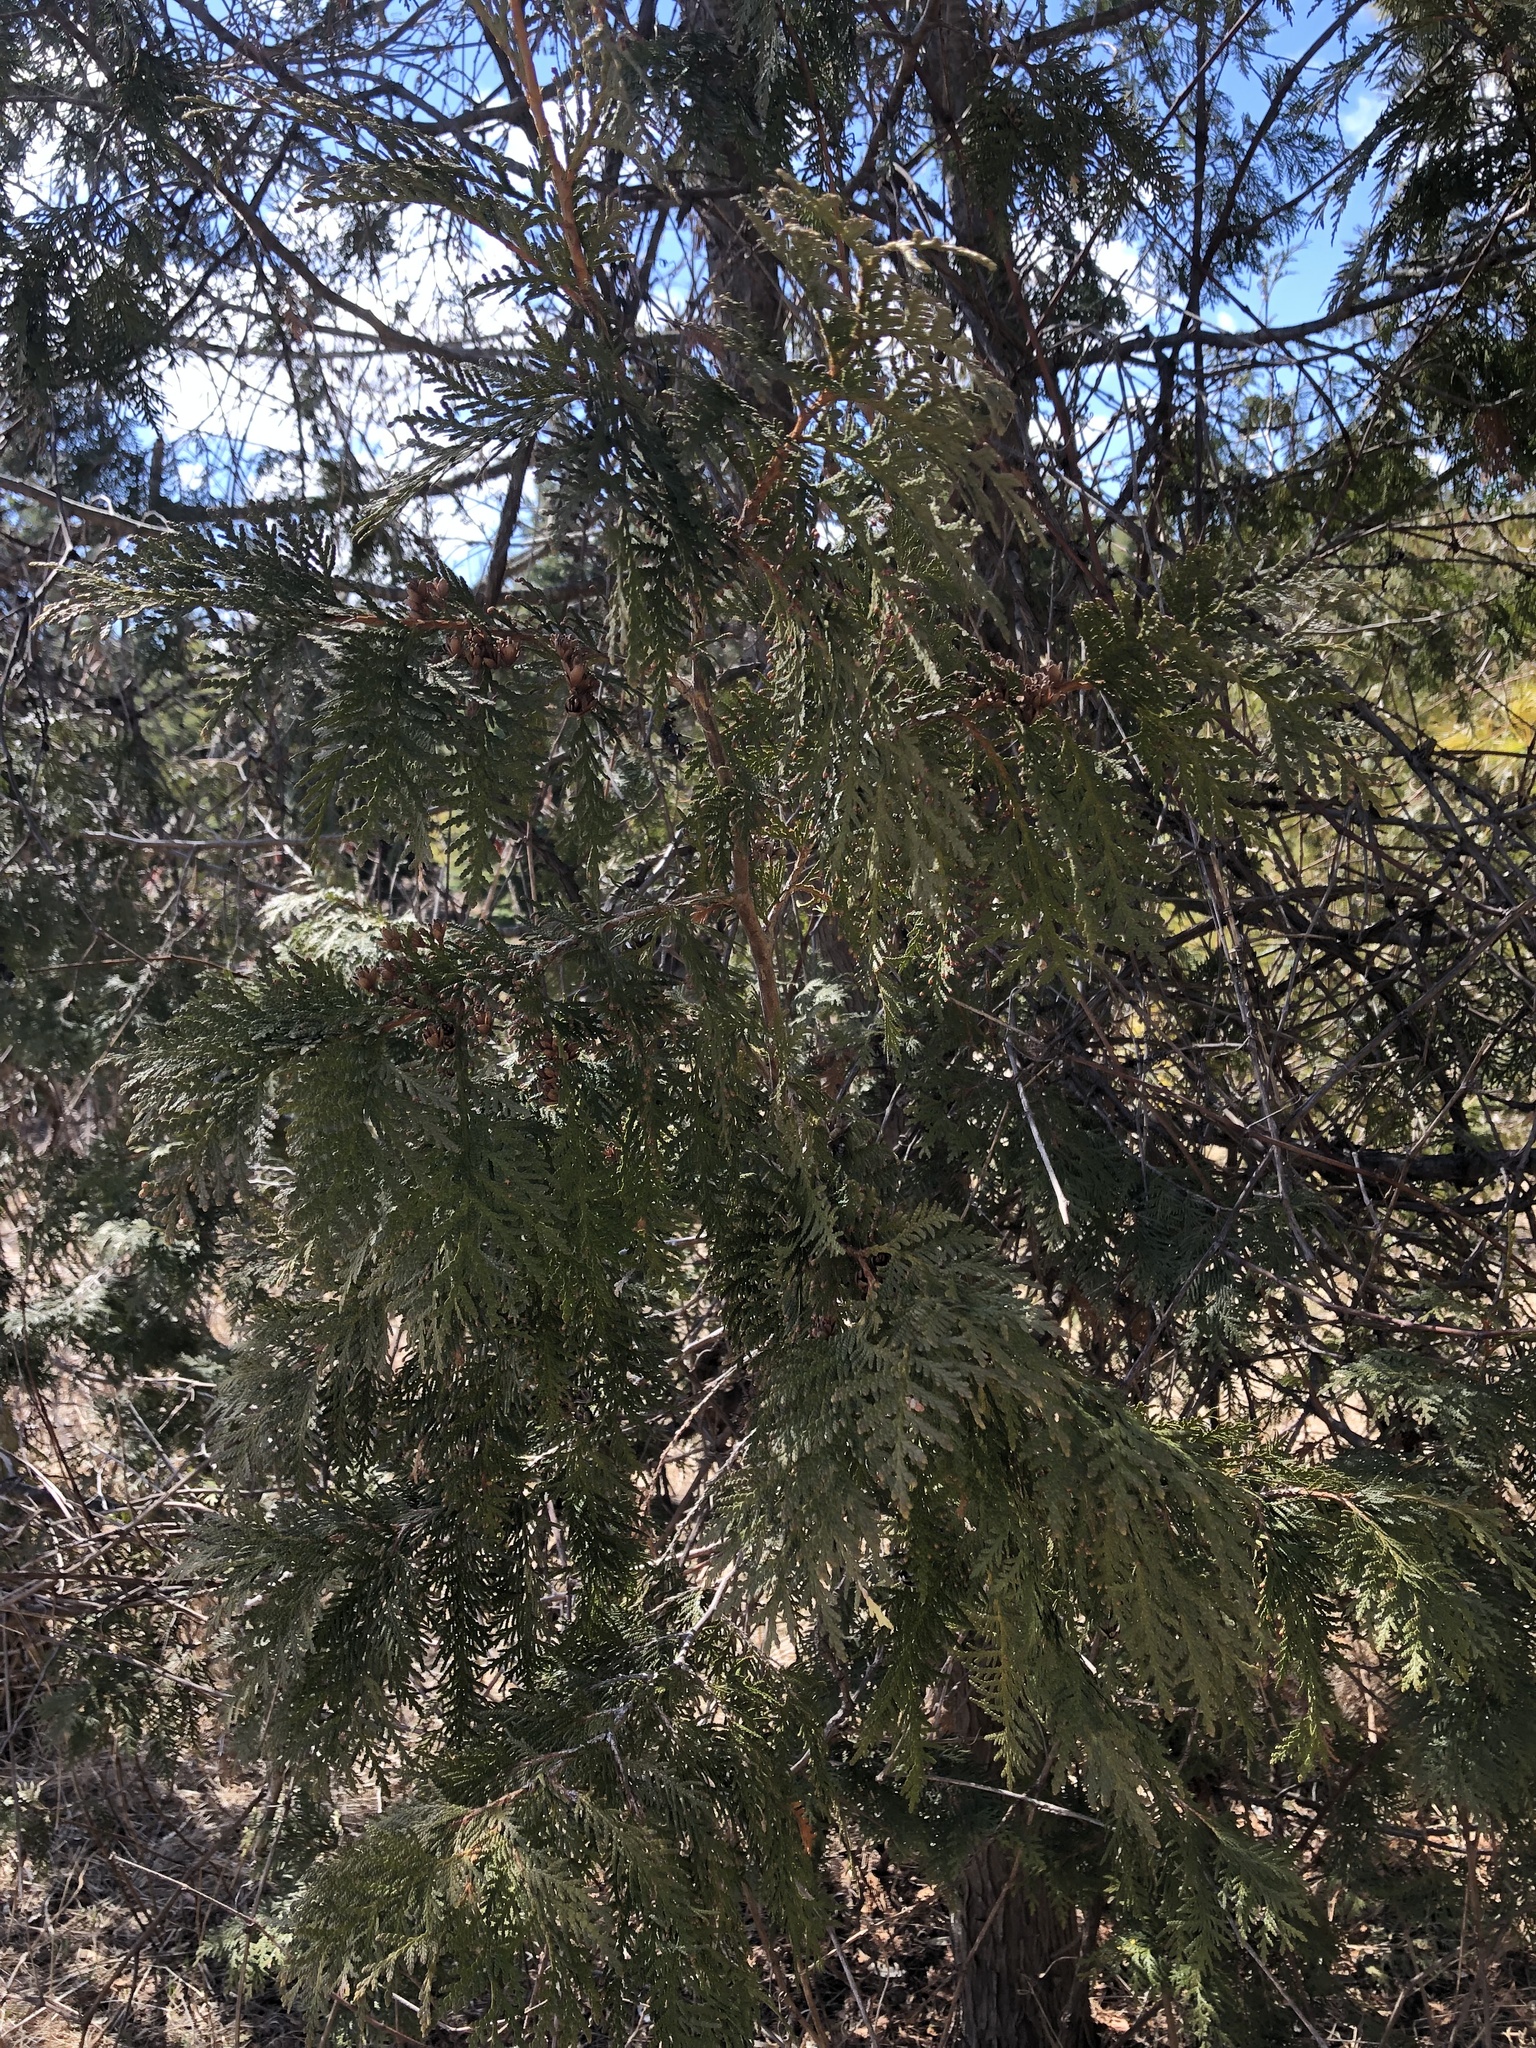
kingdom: Plantae
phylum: Tracheophyta
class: Pinopsida
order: Pinales
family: Cupressaceae
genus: Thuja
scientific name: Thuja occidentalis
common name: Northern white-cedar
